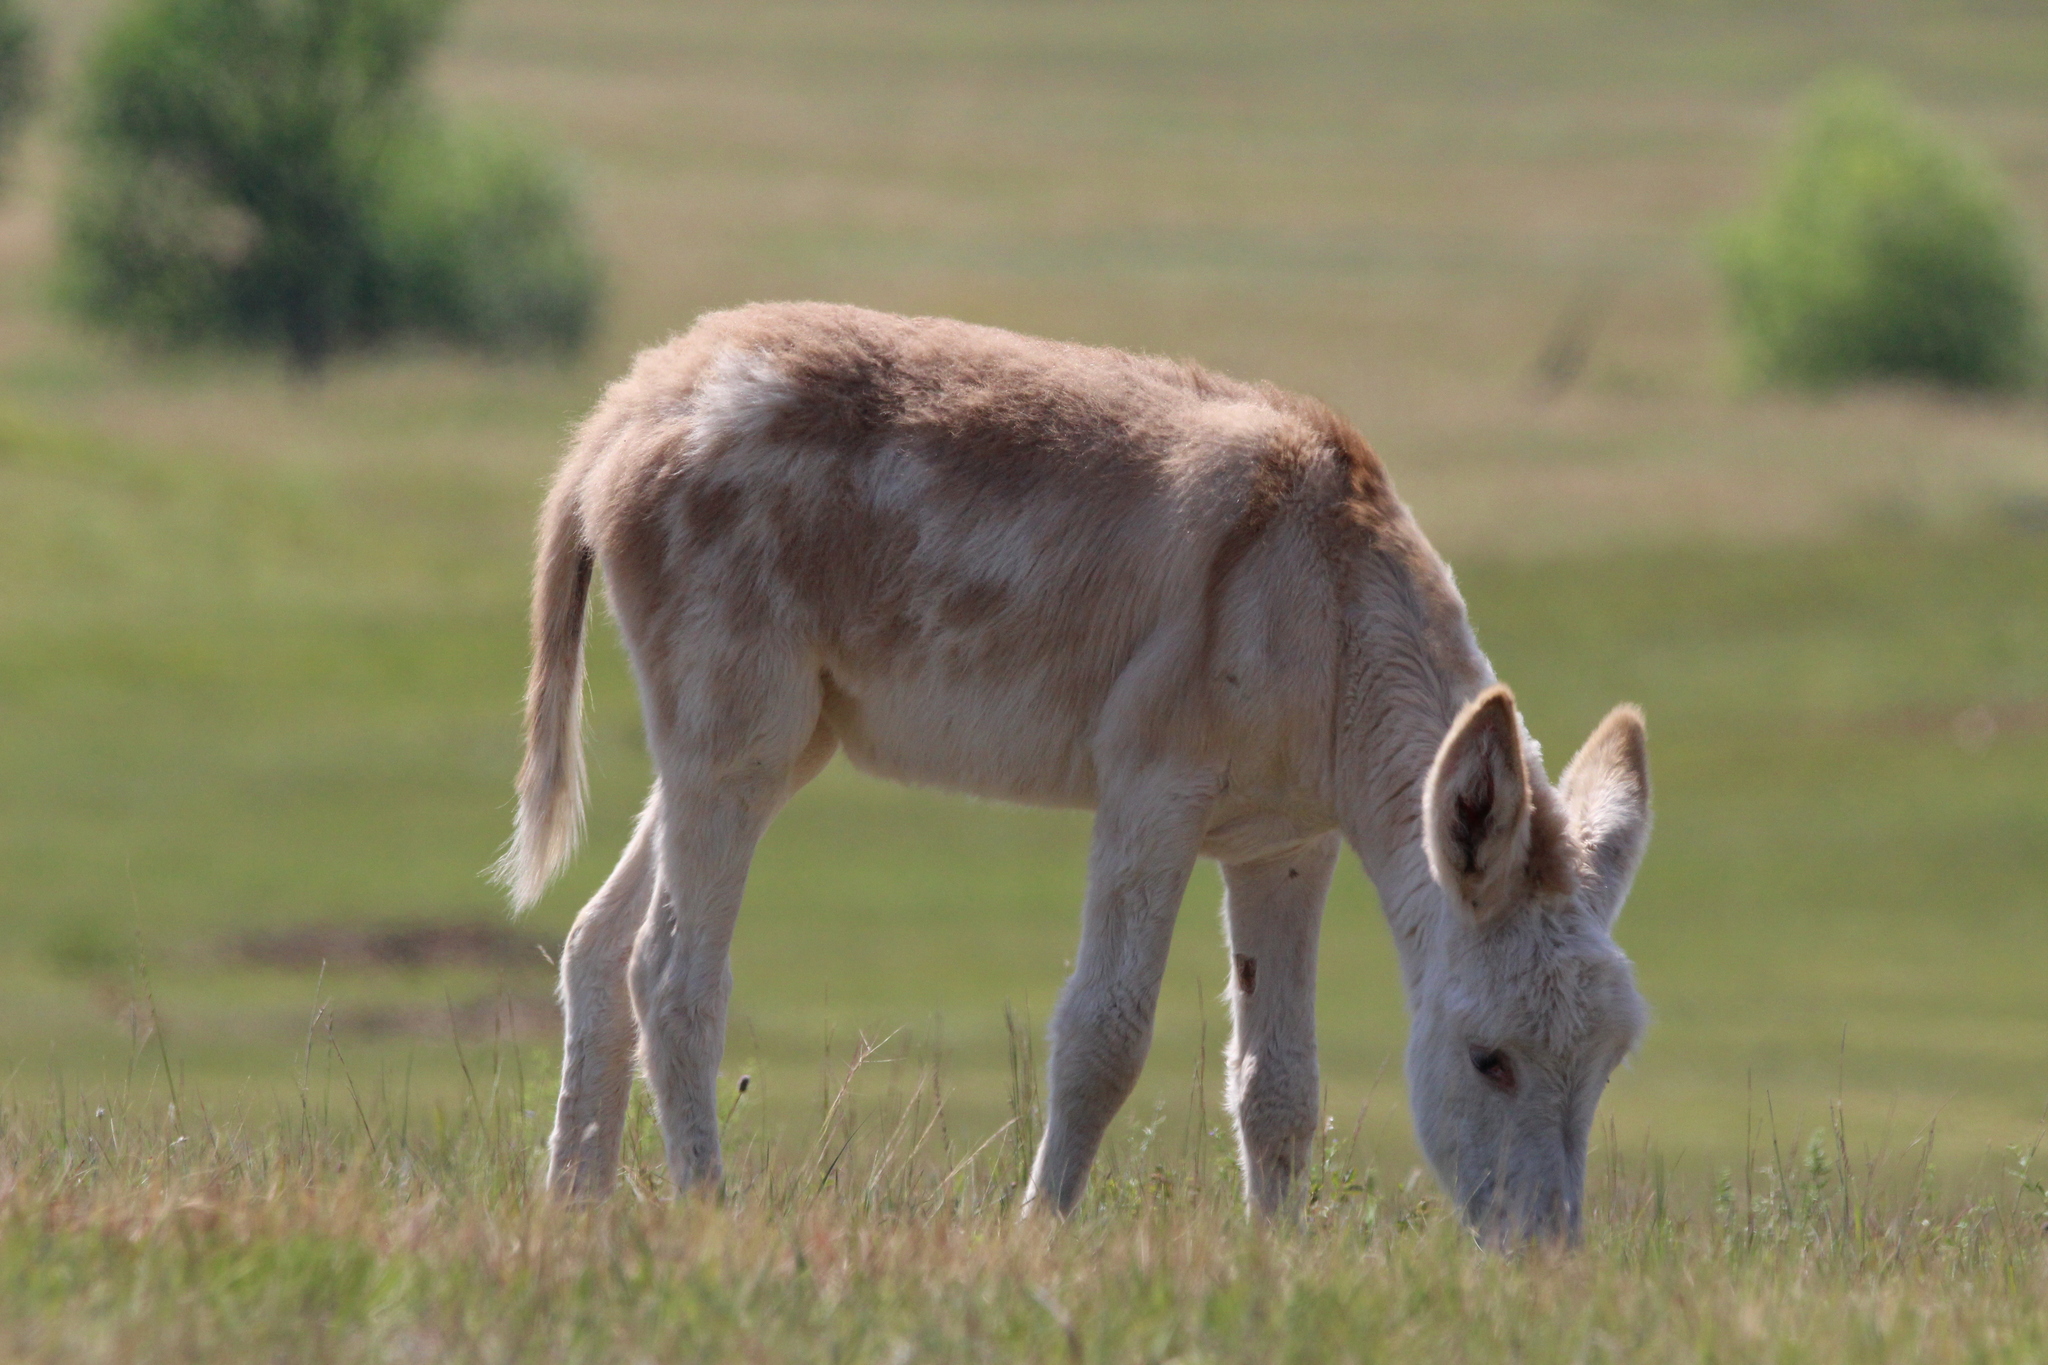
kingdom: Animalia
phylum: Chordata
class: Mammalia
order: Perissodactyla
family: Equidae
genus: Equus
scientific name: Equus asinus
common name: Ass
